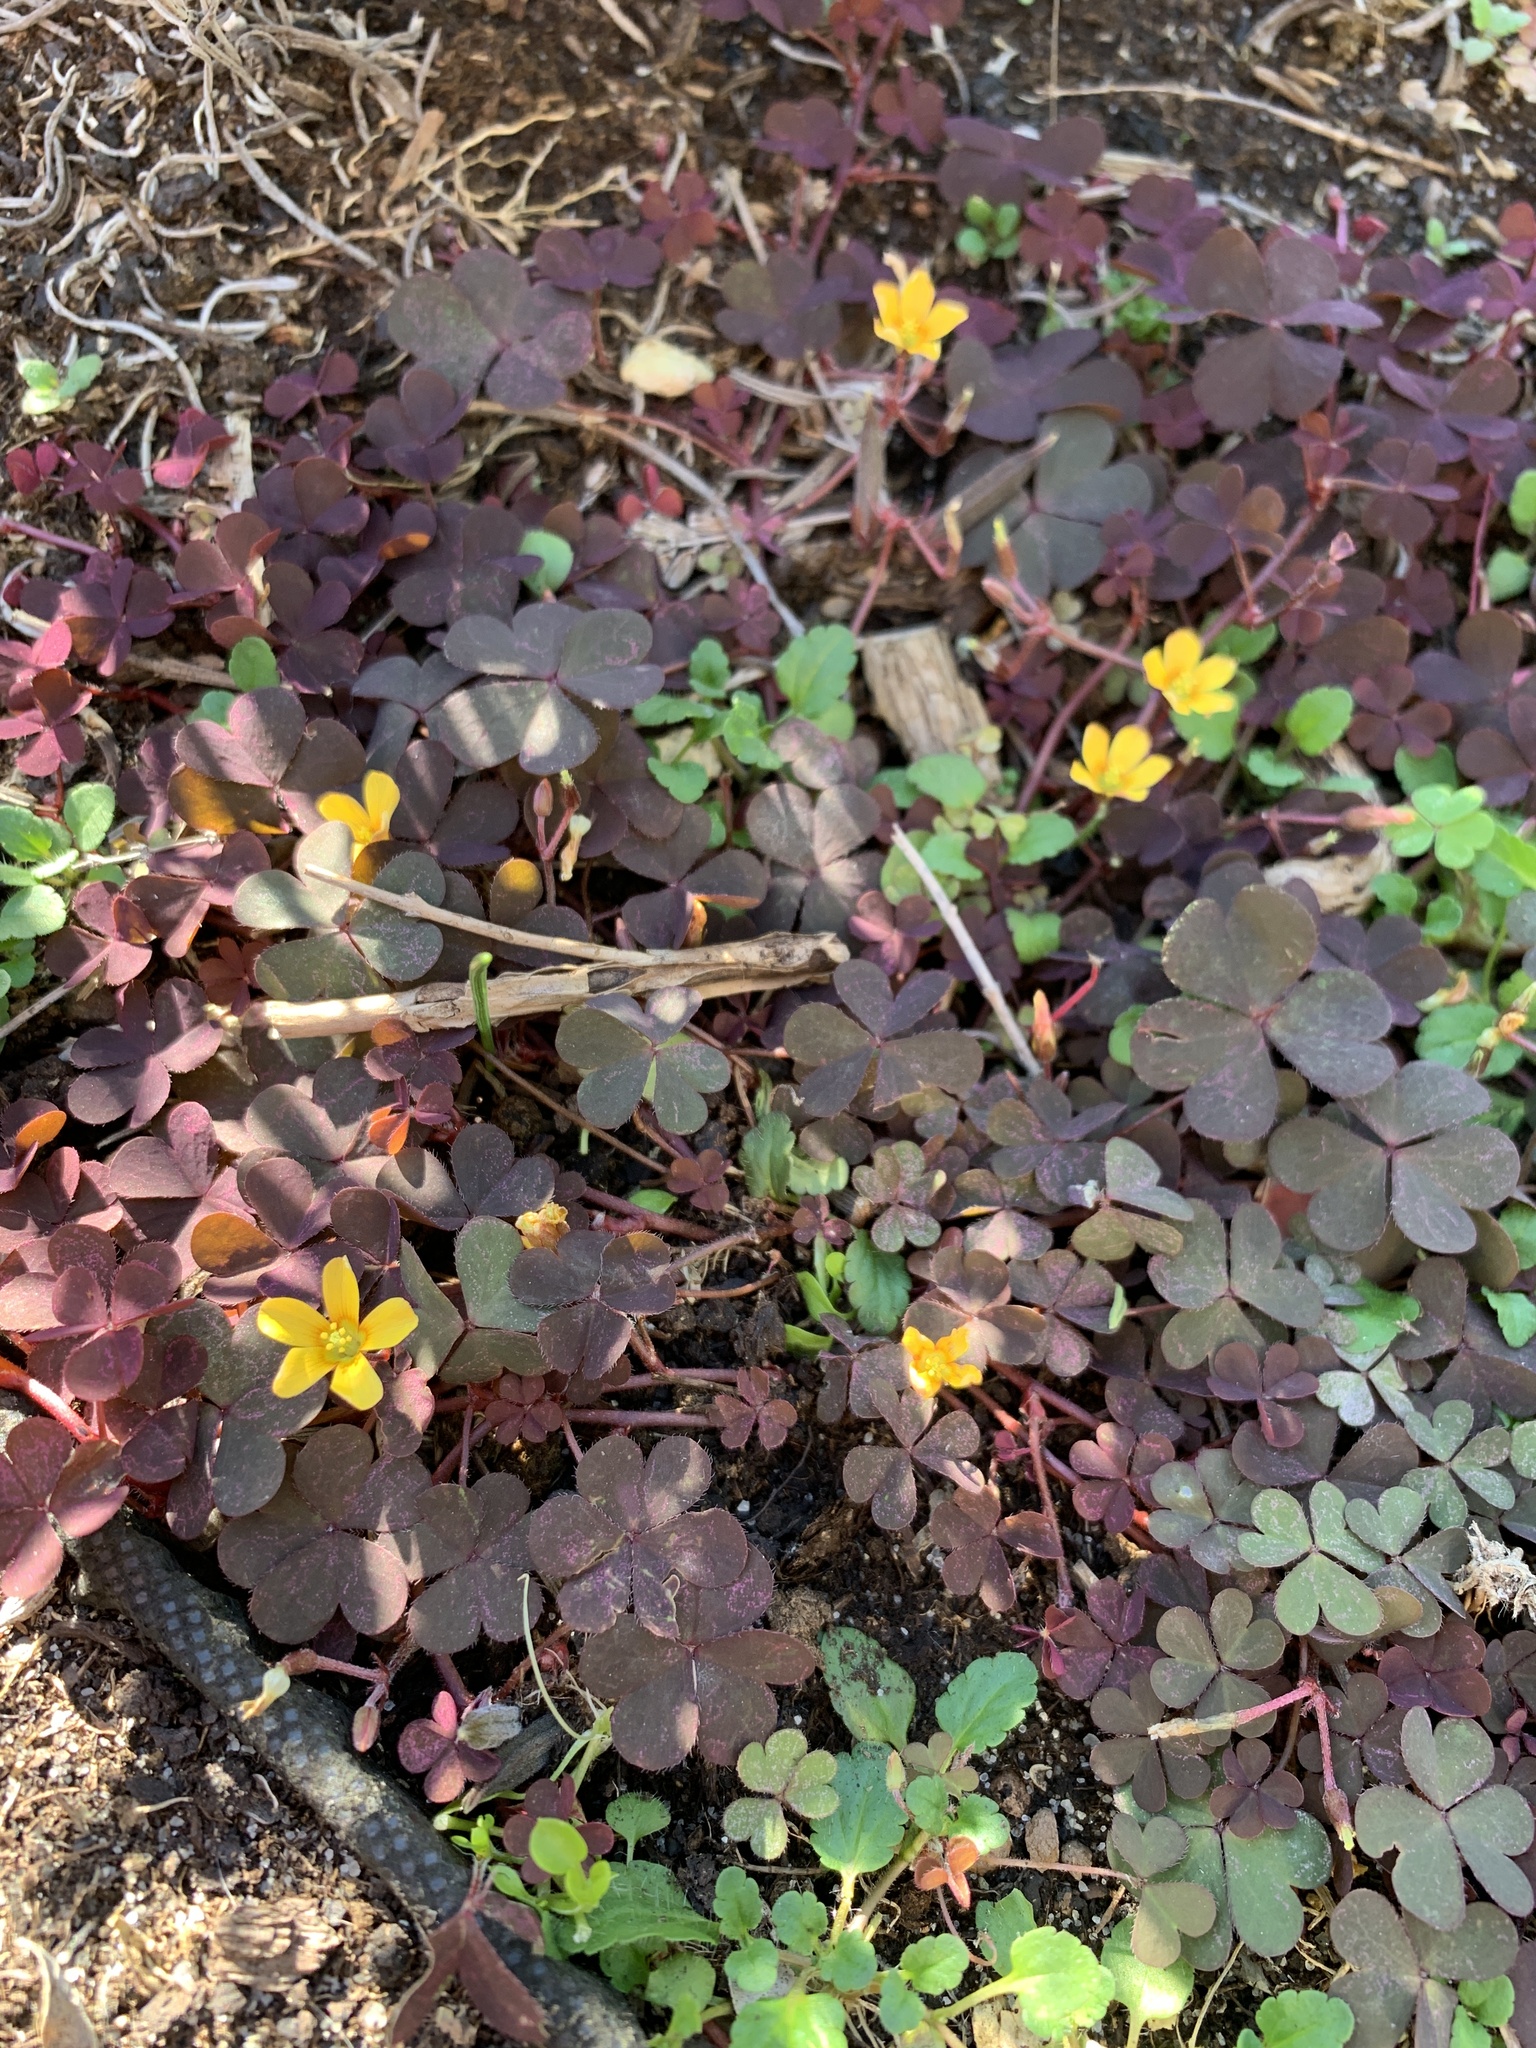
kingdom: Plantae
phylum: Tracheophyta
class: Magnoliopsida
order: Oxalidales
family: Oxalidaceae
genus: Oxalis
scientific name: Oxalis corniculata
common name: Procumbent yellow-sorrel
